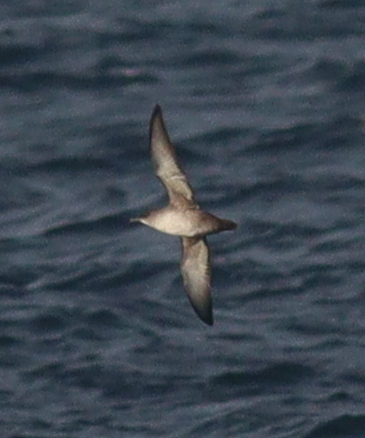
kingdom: Animalia
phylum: Chordata
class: Aves
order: Procellariiformes
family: Procellariidae
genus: Puffinus
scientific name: Puffinus mauretanicus
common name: Balearic shearwater
